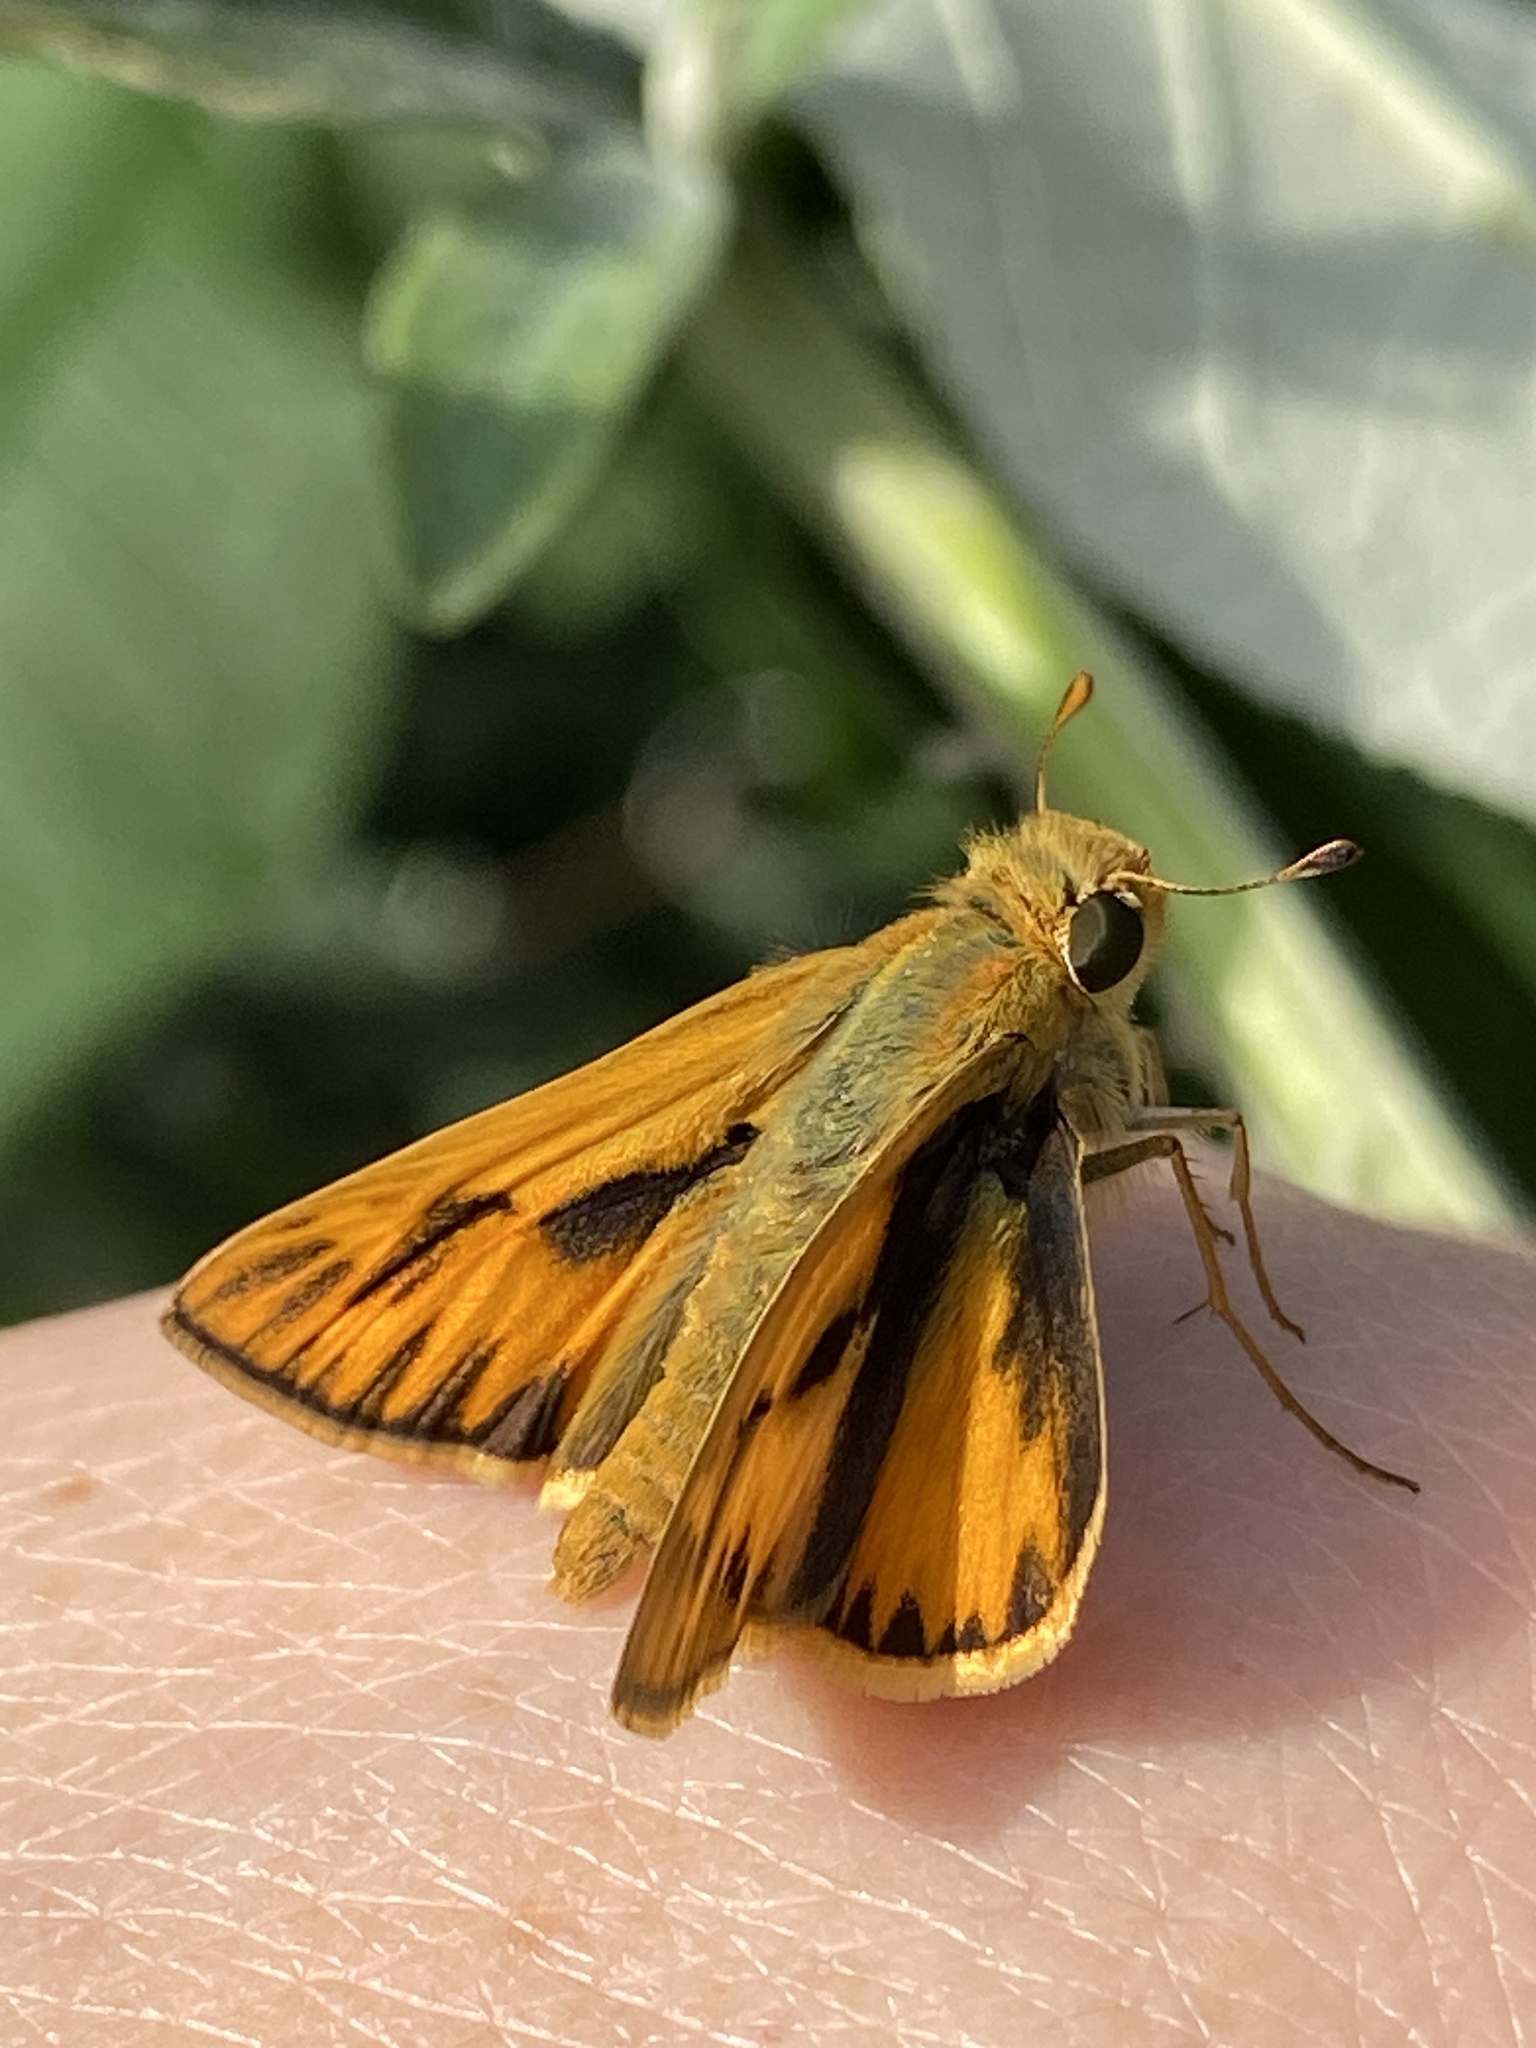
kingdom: Animalia
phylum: Arthropoda
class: Insecta
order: Lepidoptera
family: Hesperiidae
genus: Hylephila
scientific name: Hylephila phyleus
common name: Fiery skipper
